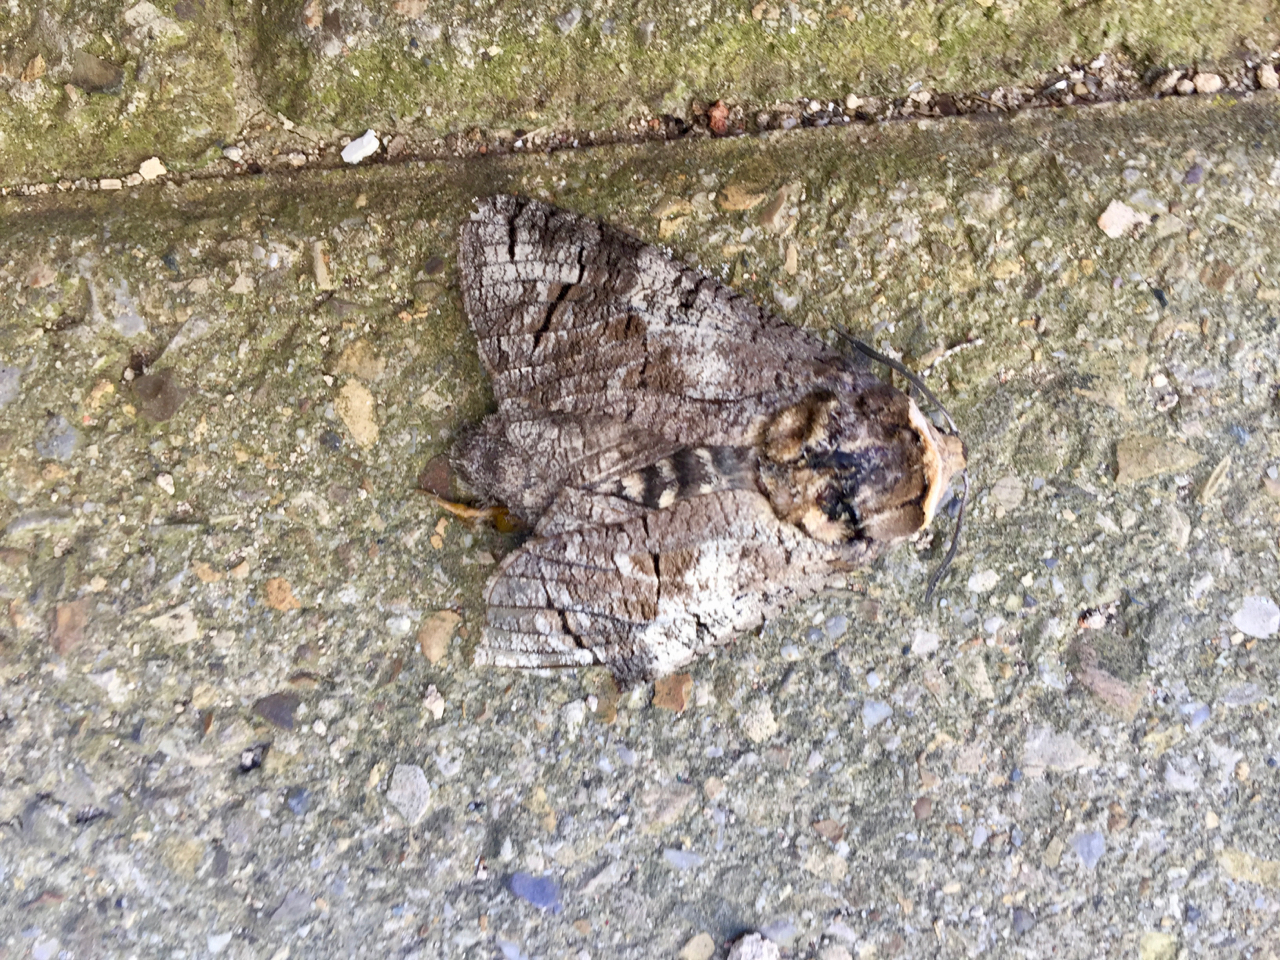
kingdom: Animalia
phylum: Arthropoda
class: Insecta
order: Lepidoptera
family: Cossidae
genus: Cossus
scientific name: Cossus cossus
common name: Goat moth
